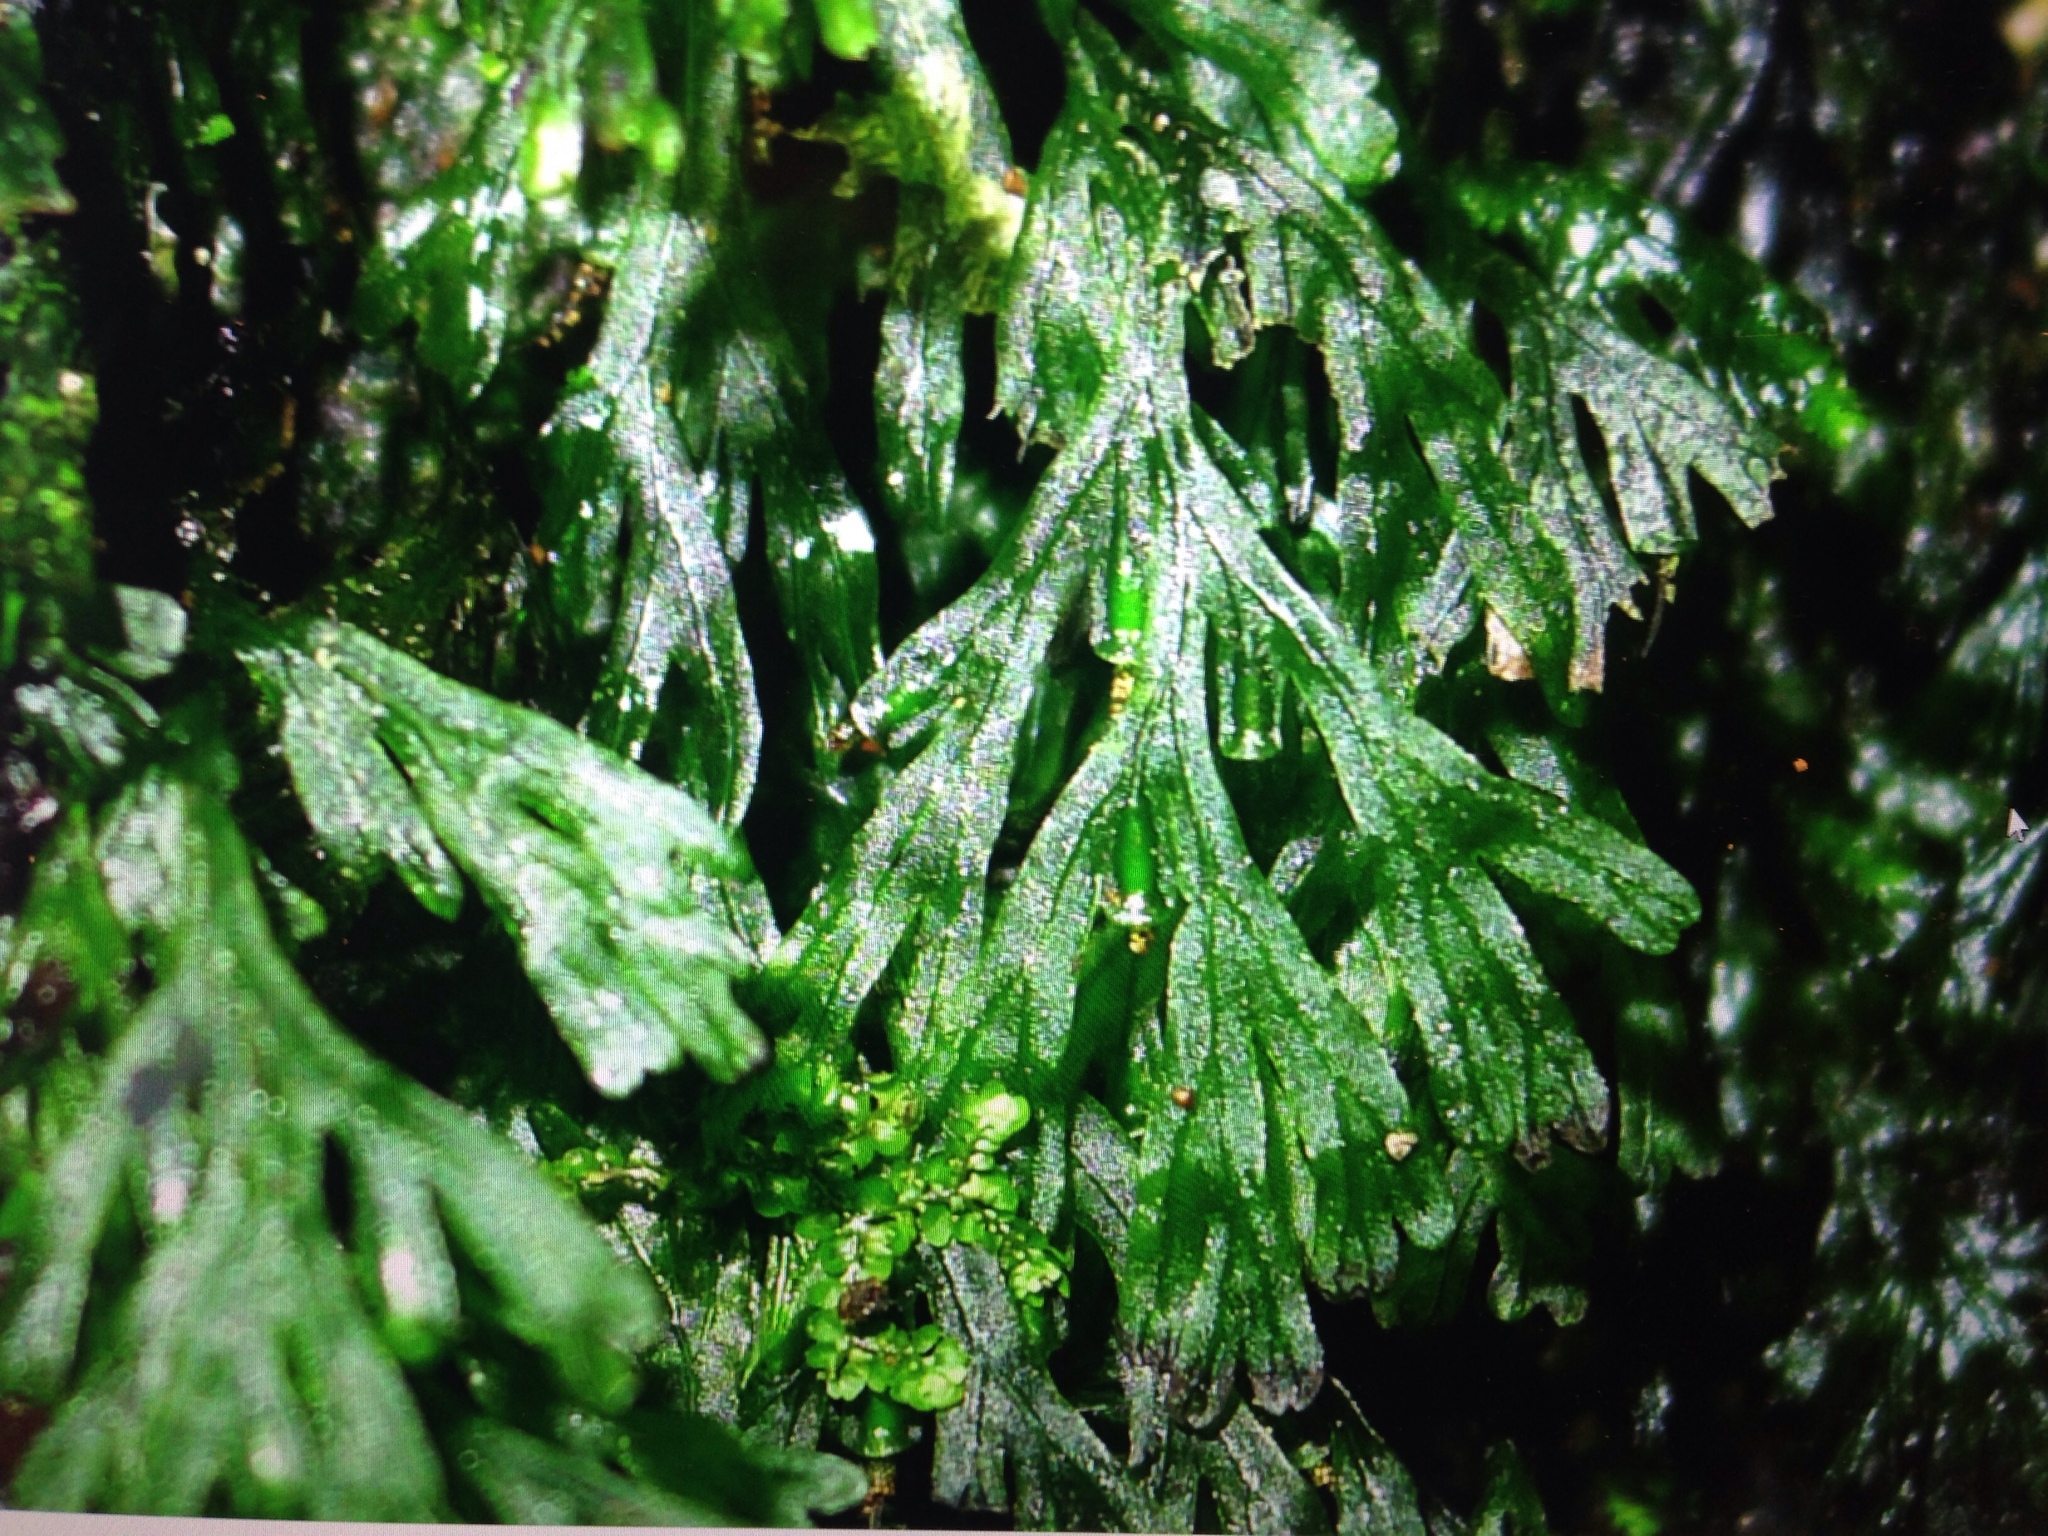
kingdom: Plantae
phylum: Tracheophyta
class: Polypodiopsida
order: Hymenophyllales
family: Hymenophyllaceae
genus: Polyphlebium
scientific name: Polyphlebium endlicherianum
